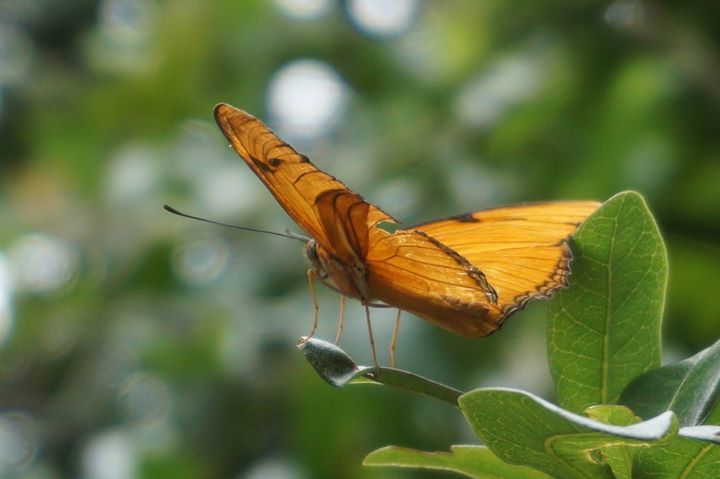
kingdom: Animalia
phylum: Arthropoda
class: Insecta
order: Lepidoptera
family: Nymphalidae
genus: Dryas
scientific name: Dryas iulia
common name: Flambeau
